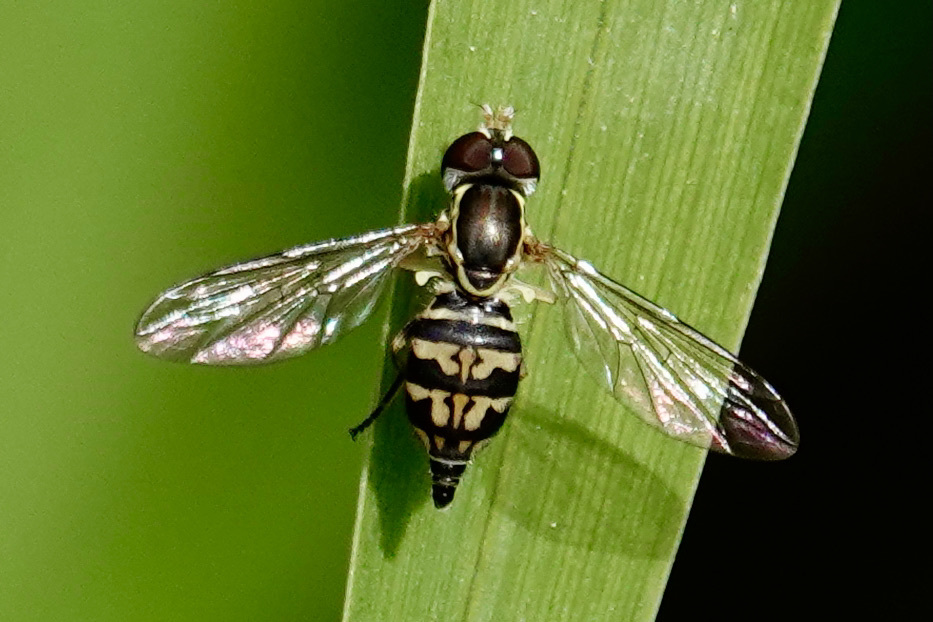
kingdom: Animalia
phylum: Arthropoda
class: Insecta
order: Diptera
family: Syrphidae
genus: Toxomerus
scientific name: Toxomerus geminatus
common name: Eastern calligrapher
